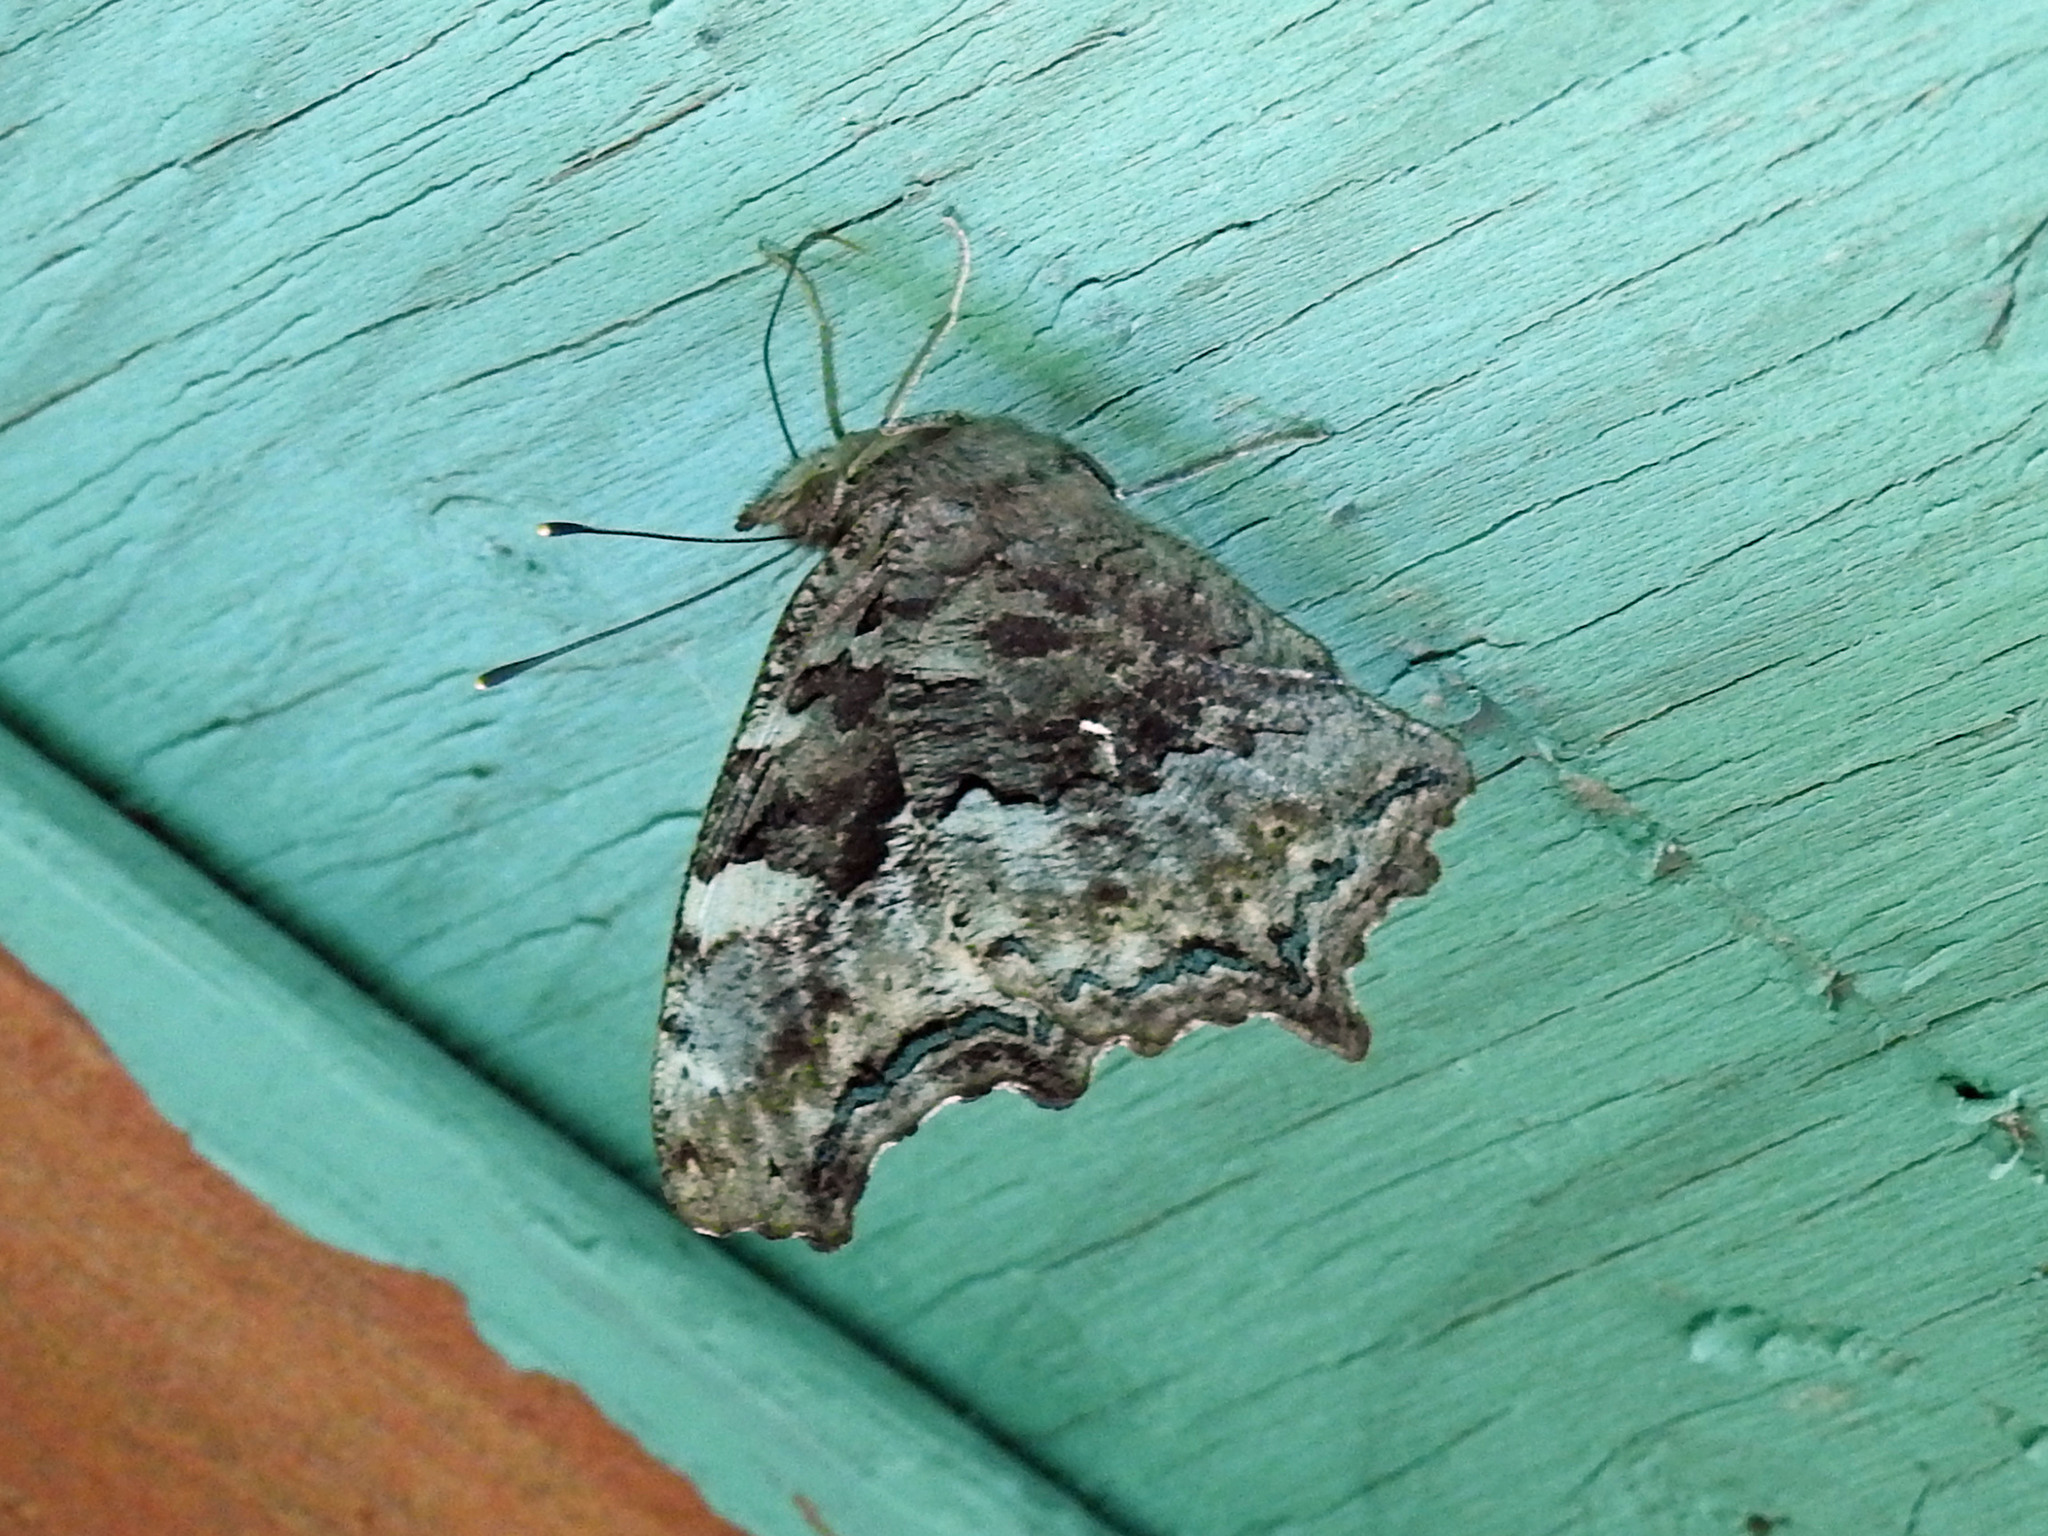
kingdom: Animalia
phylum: Arthropoda
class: Insecta
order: Lepidoptera
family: Nymphalidae
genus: Polygonia
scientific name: Polygonia vaualbum
